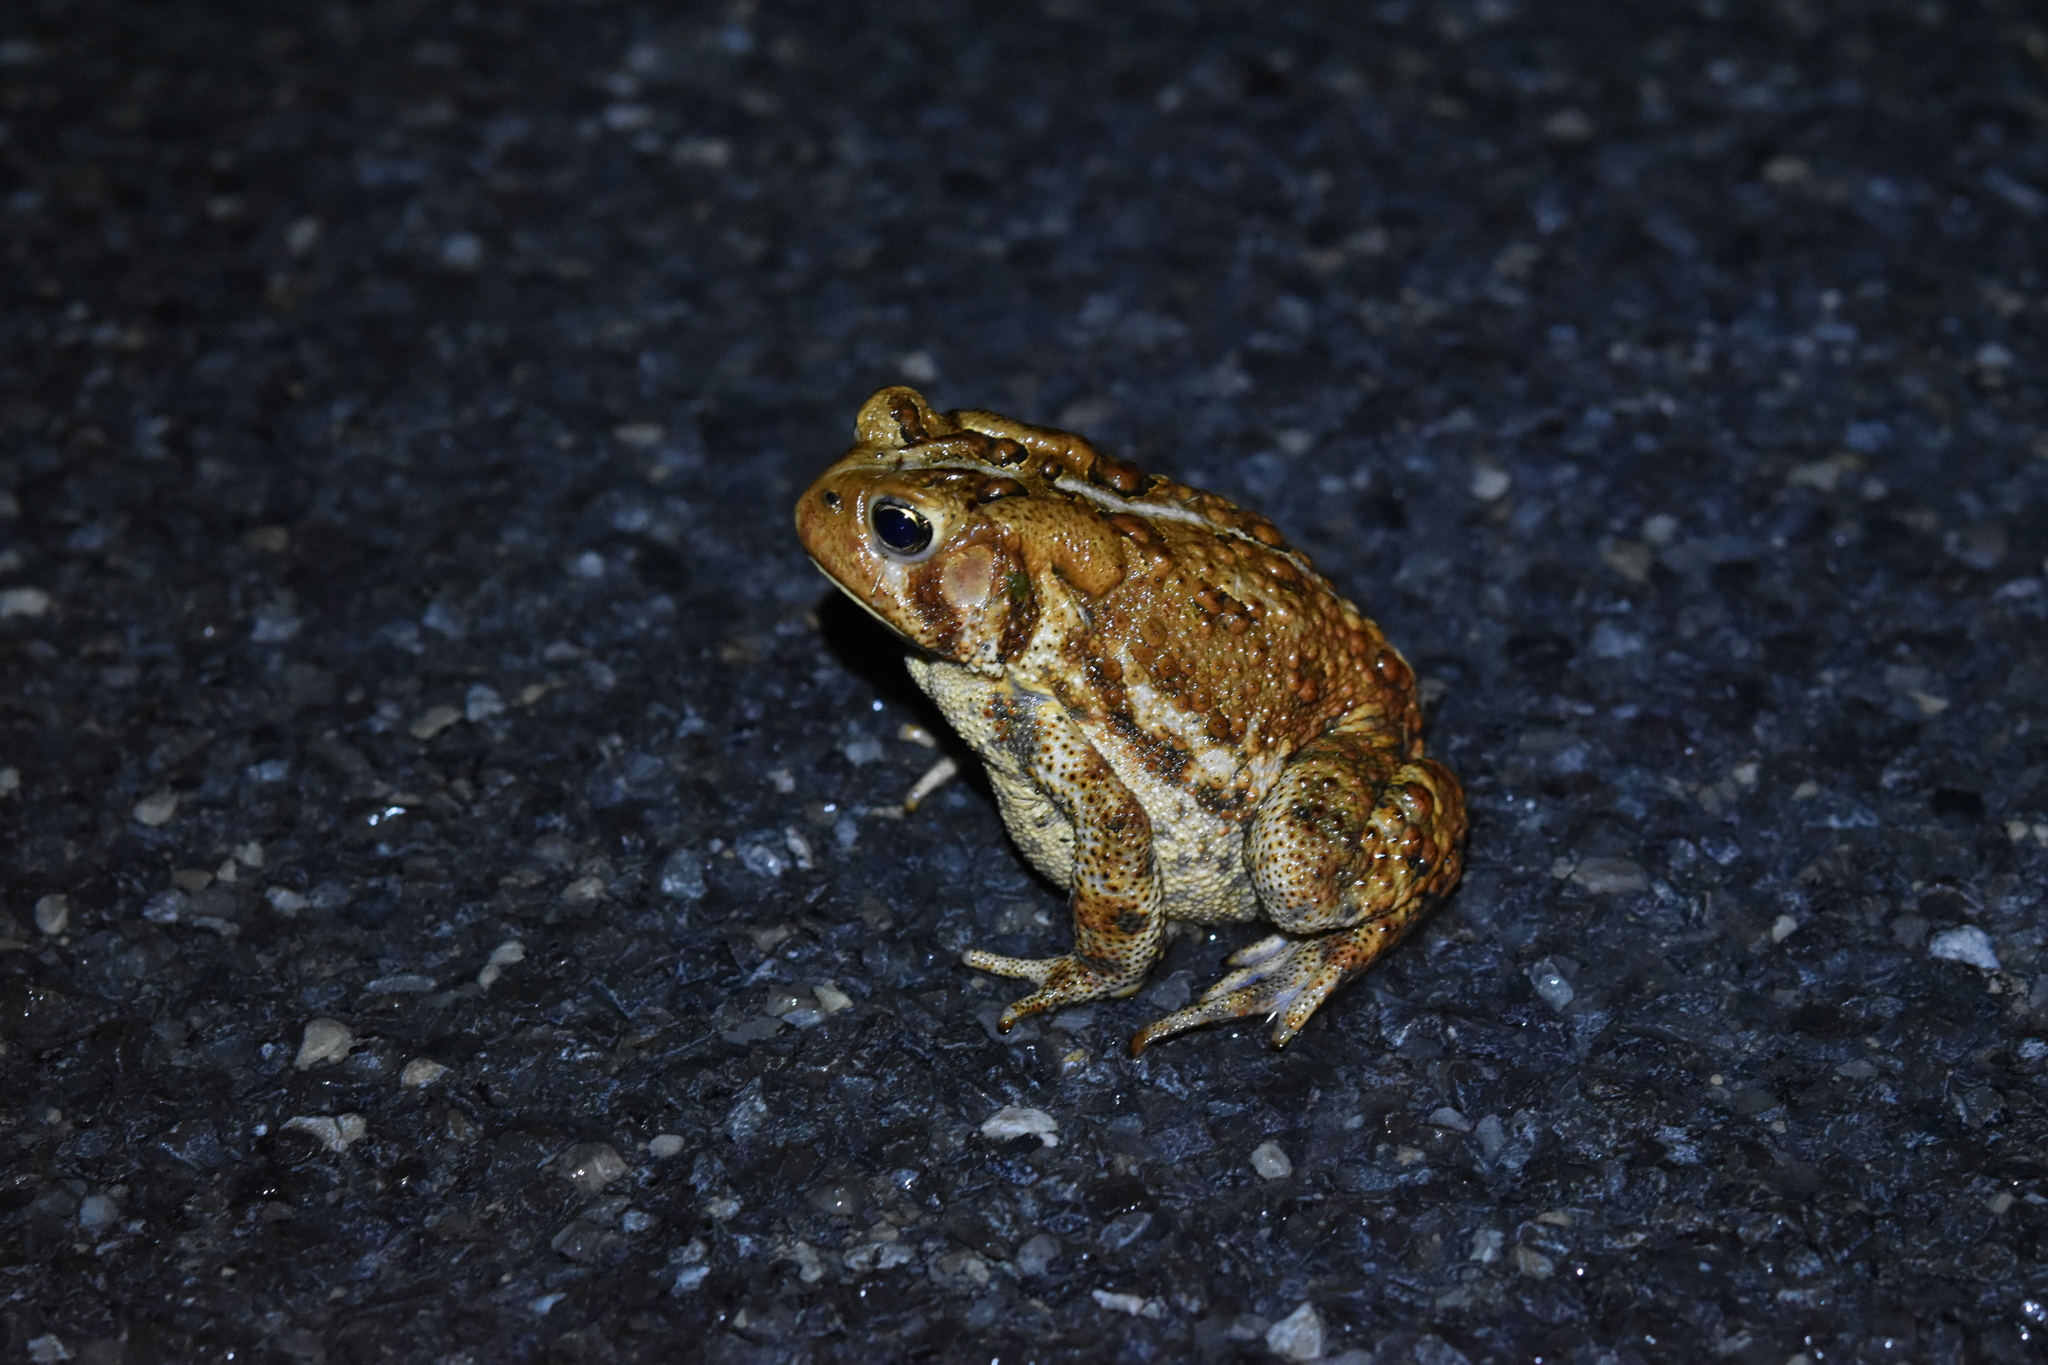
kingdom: Animalia
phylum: Chordata
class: Amphibia
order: Anura
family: Bufonidae
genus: Anaxyrus
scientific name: Anaxyrus americanus
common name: American toad
